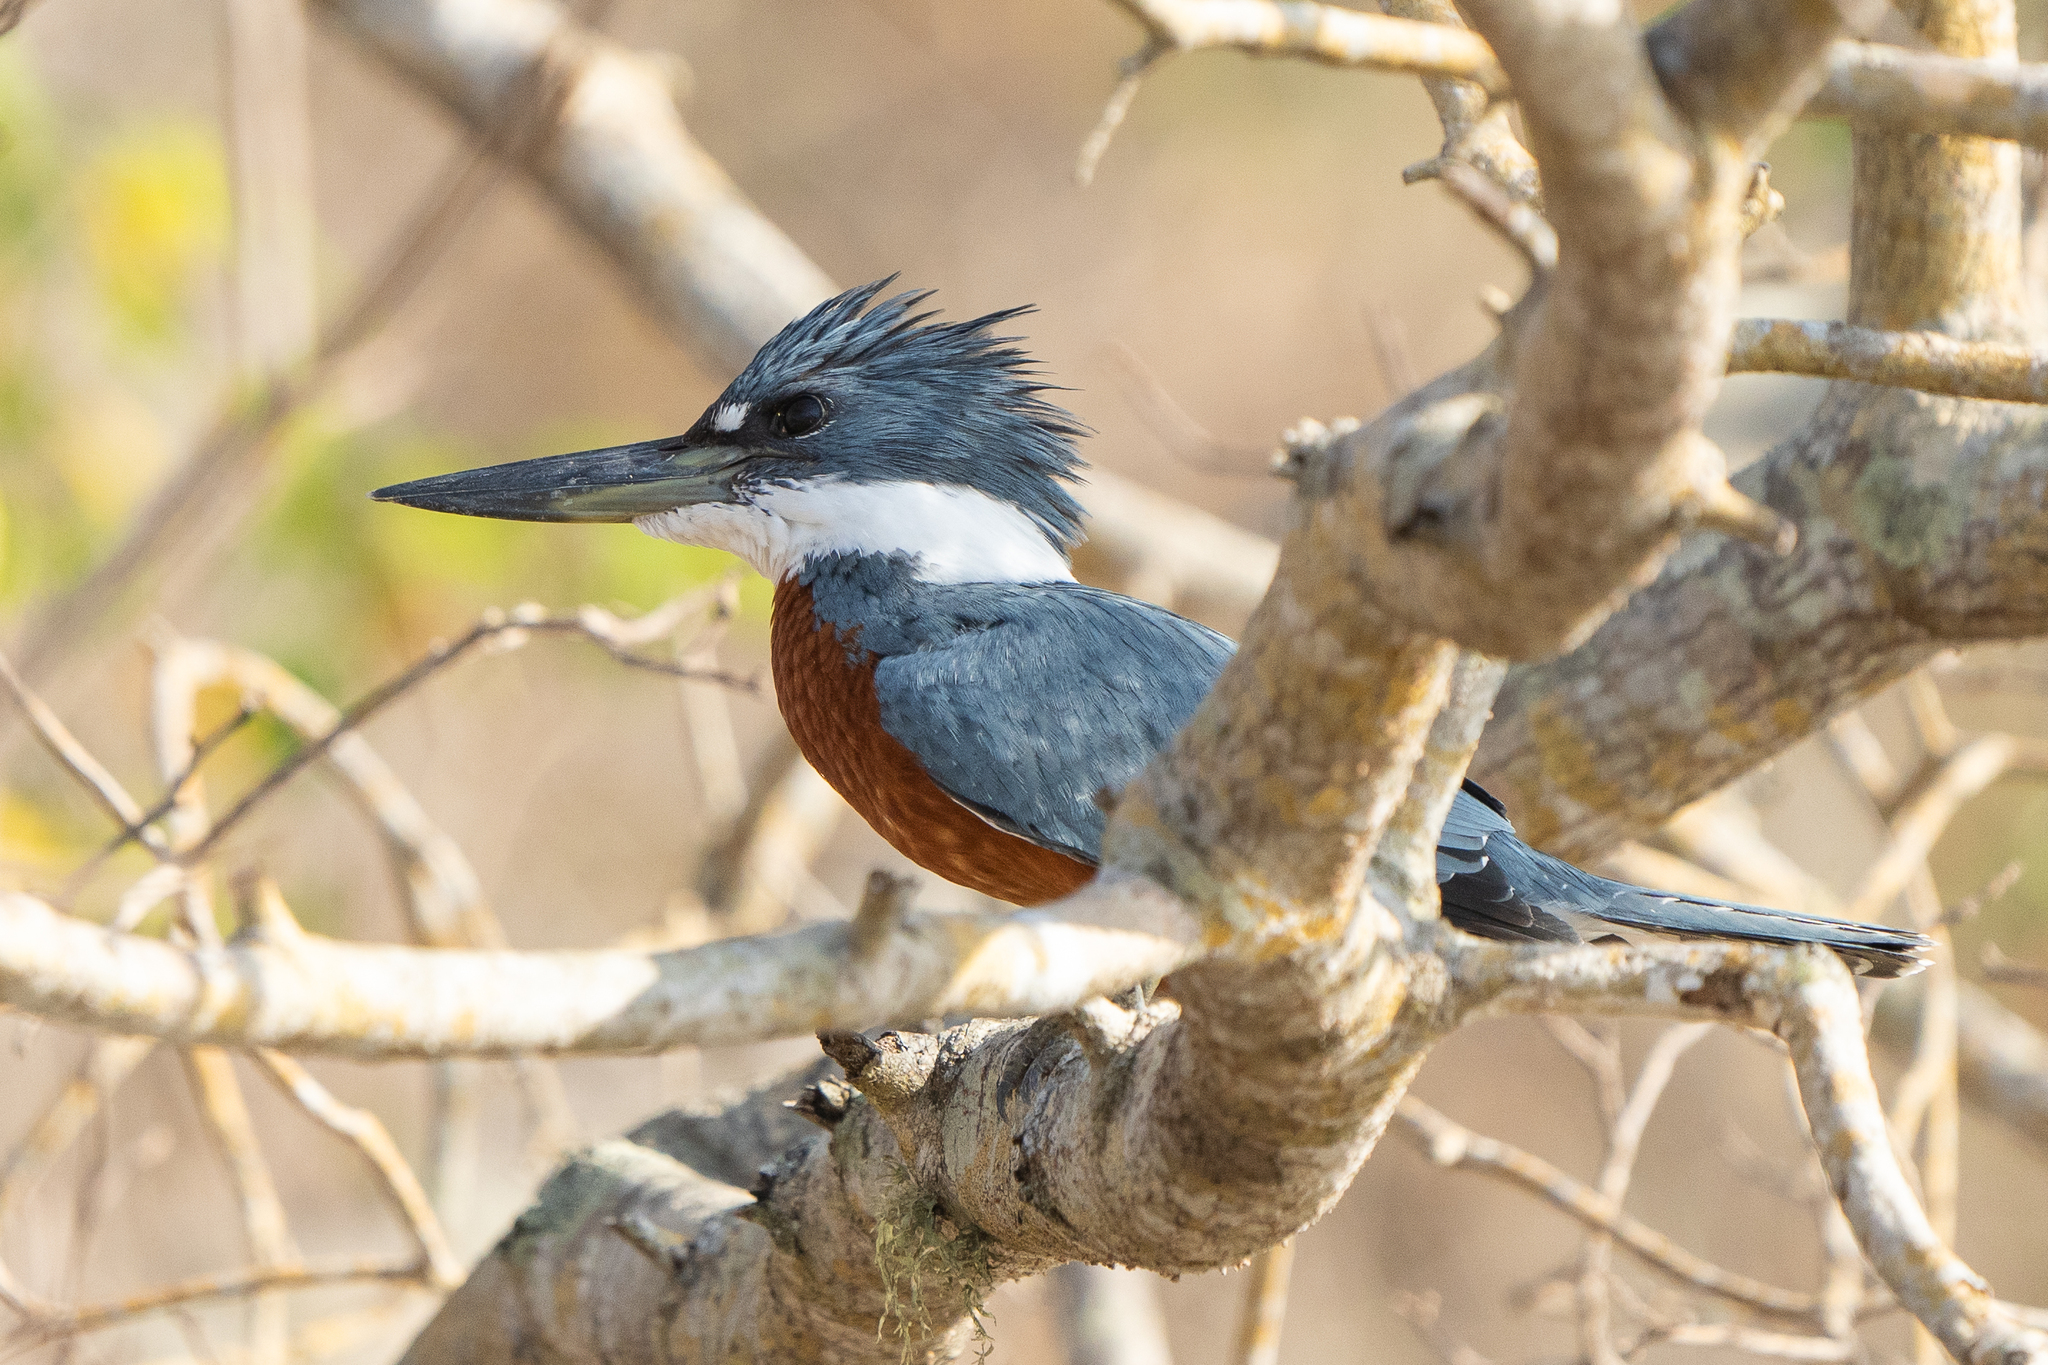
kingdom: Animalia
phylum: Chordata
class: Aves
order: Coraciiformes
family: Alcedinidae
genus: Megaceryle
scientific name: Megaceryle torquata
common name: Ringed kingfisher
